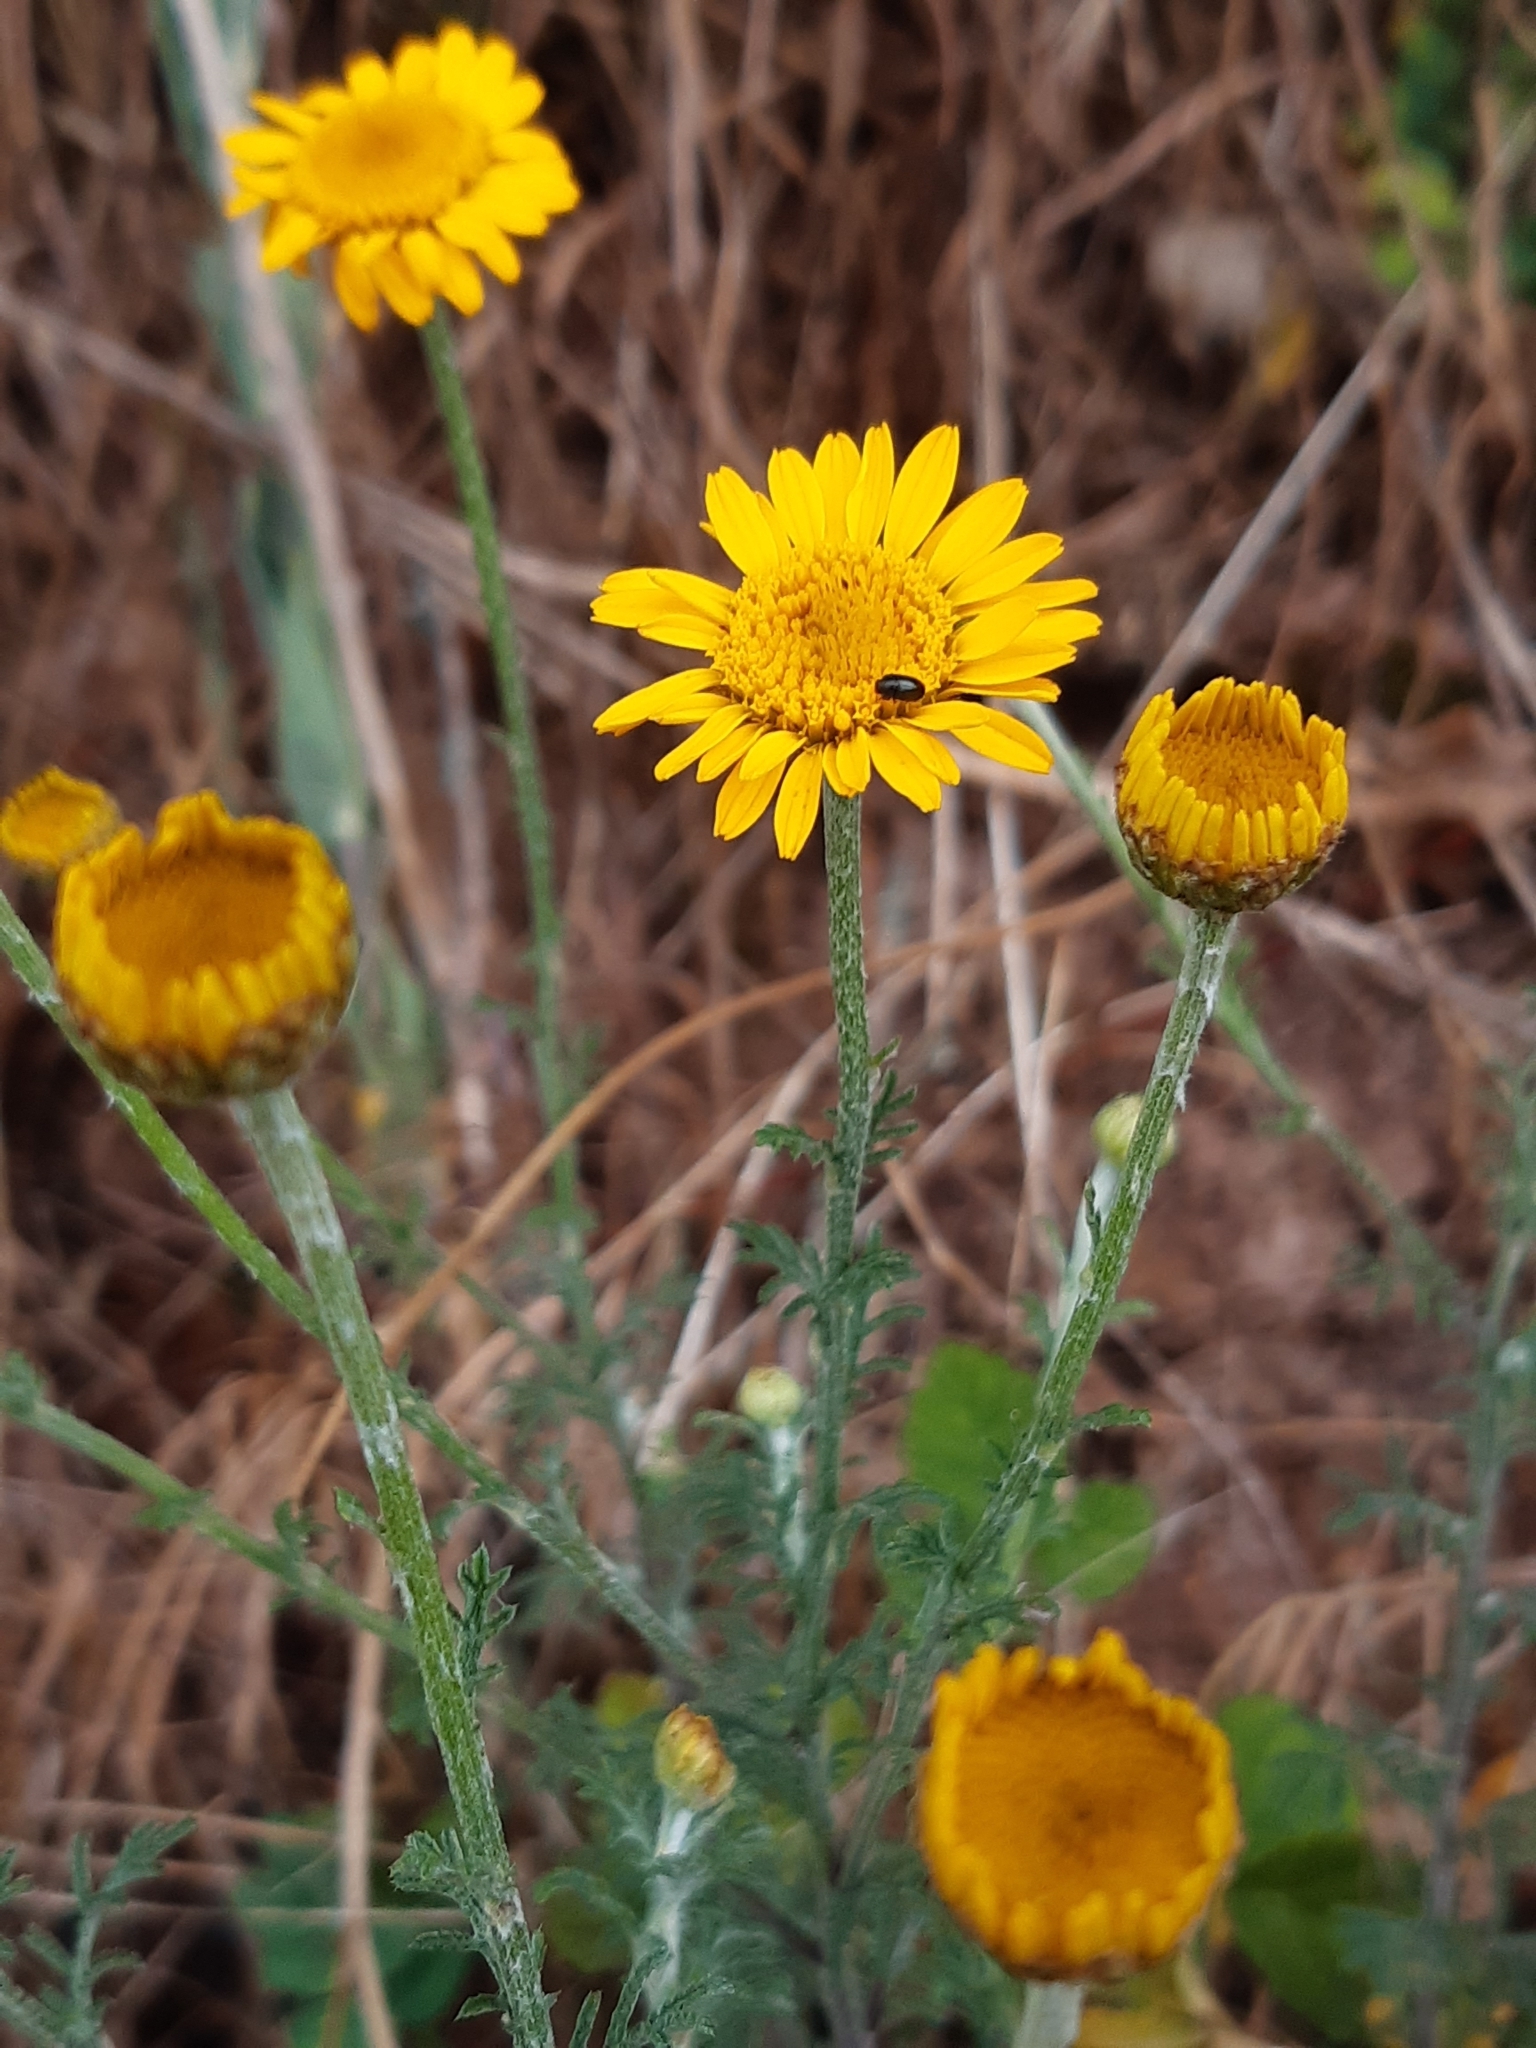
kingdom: Plantae
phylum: Tracheophyta
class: Magnoliopsida
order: Asterales
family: Asteraceae
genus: Cota
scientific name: Cota tinctoria
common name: Golden chamomile
